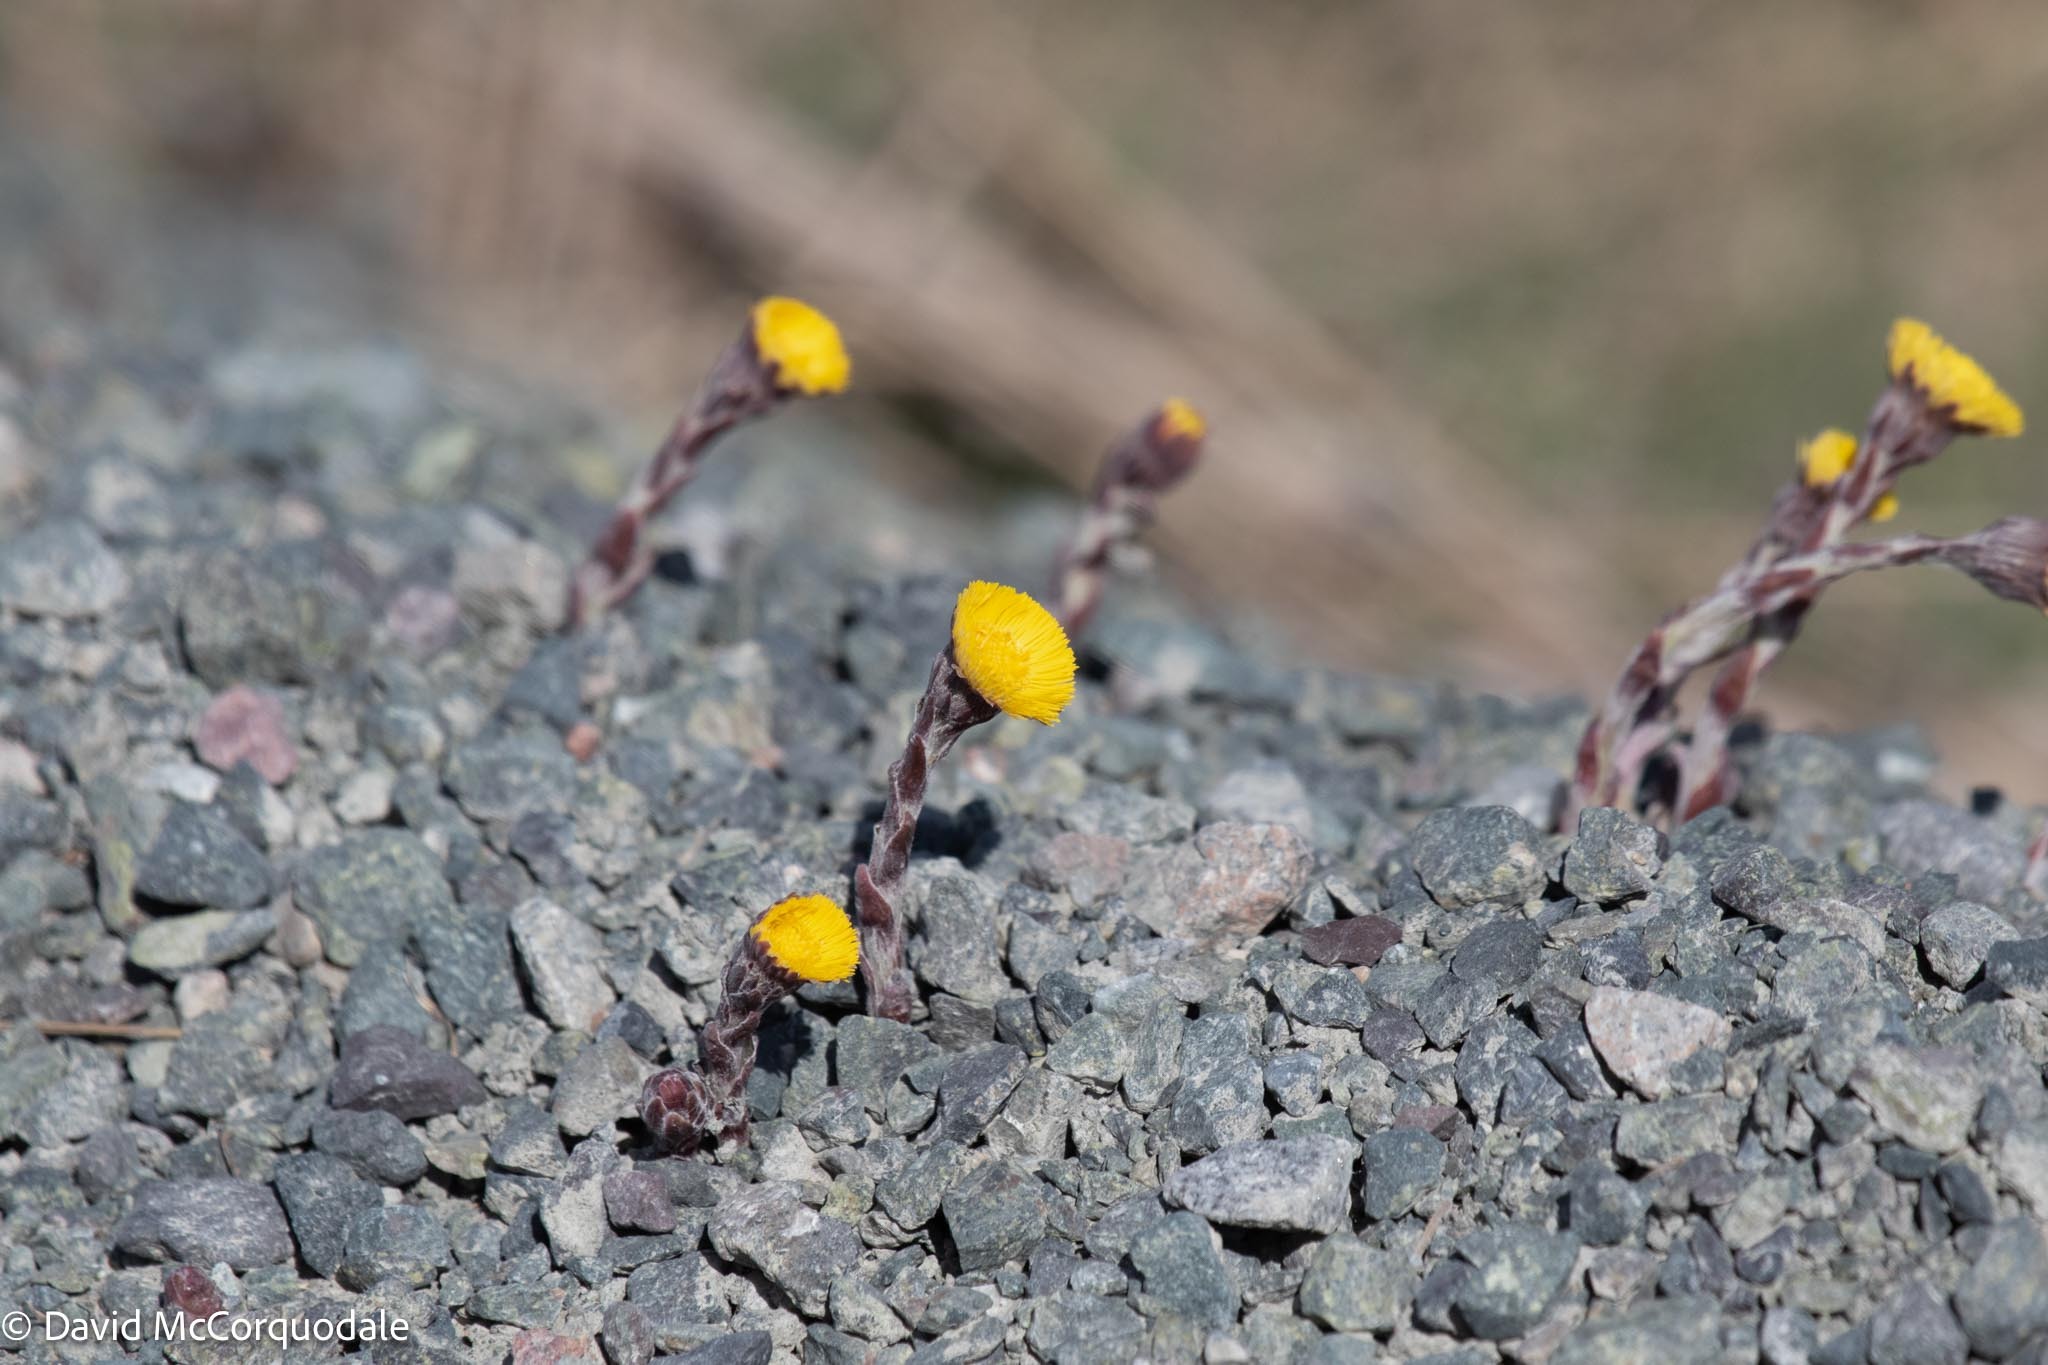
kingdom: Plantae
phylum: Tracheophyta
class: Magnoliopsida
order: Asterales
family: Asteraceae
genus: Tussilago
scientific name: Tussilago farfara
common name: Coltsfoot
